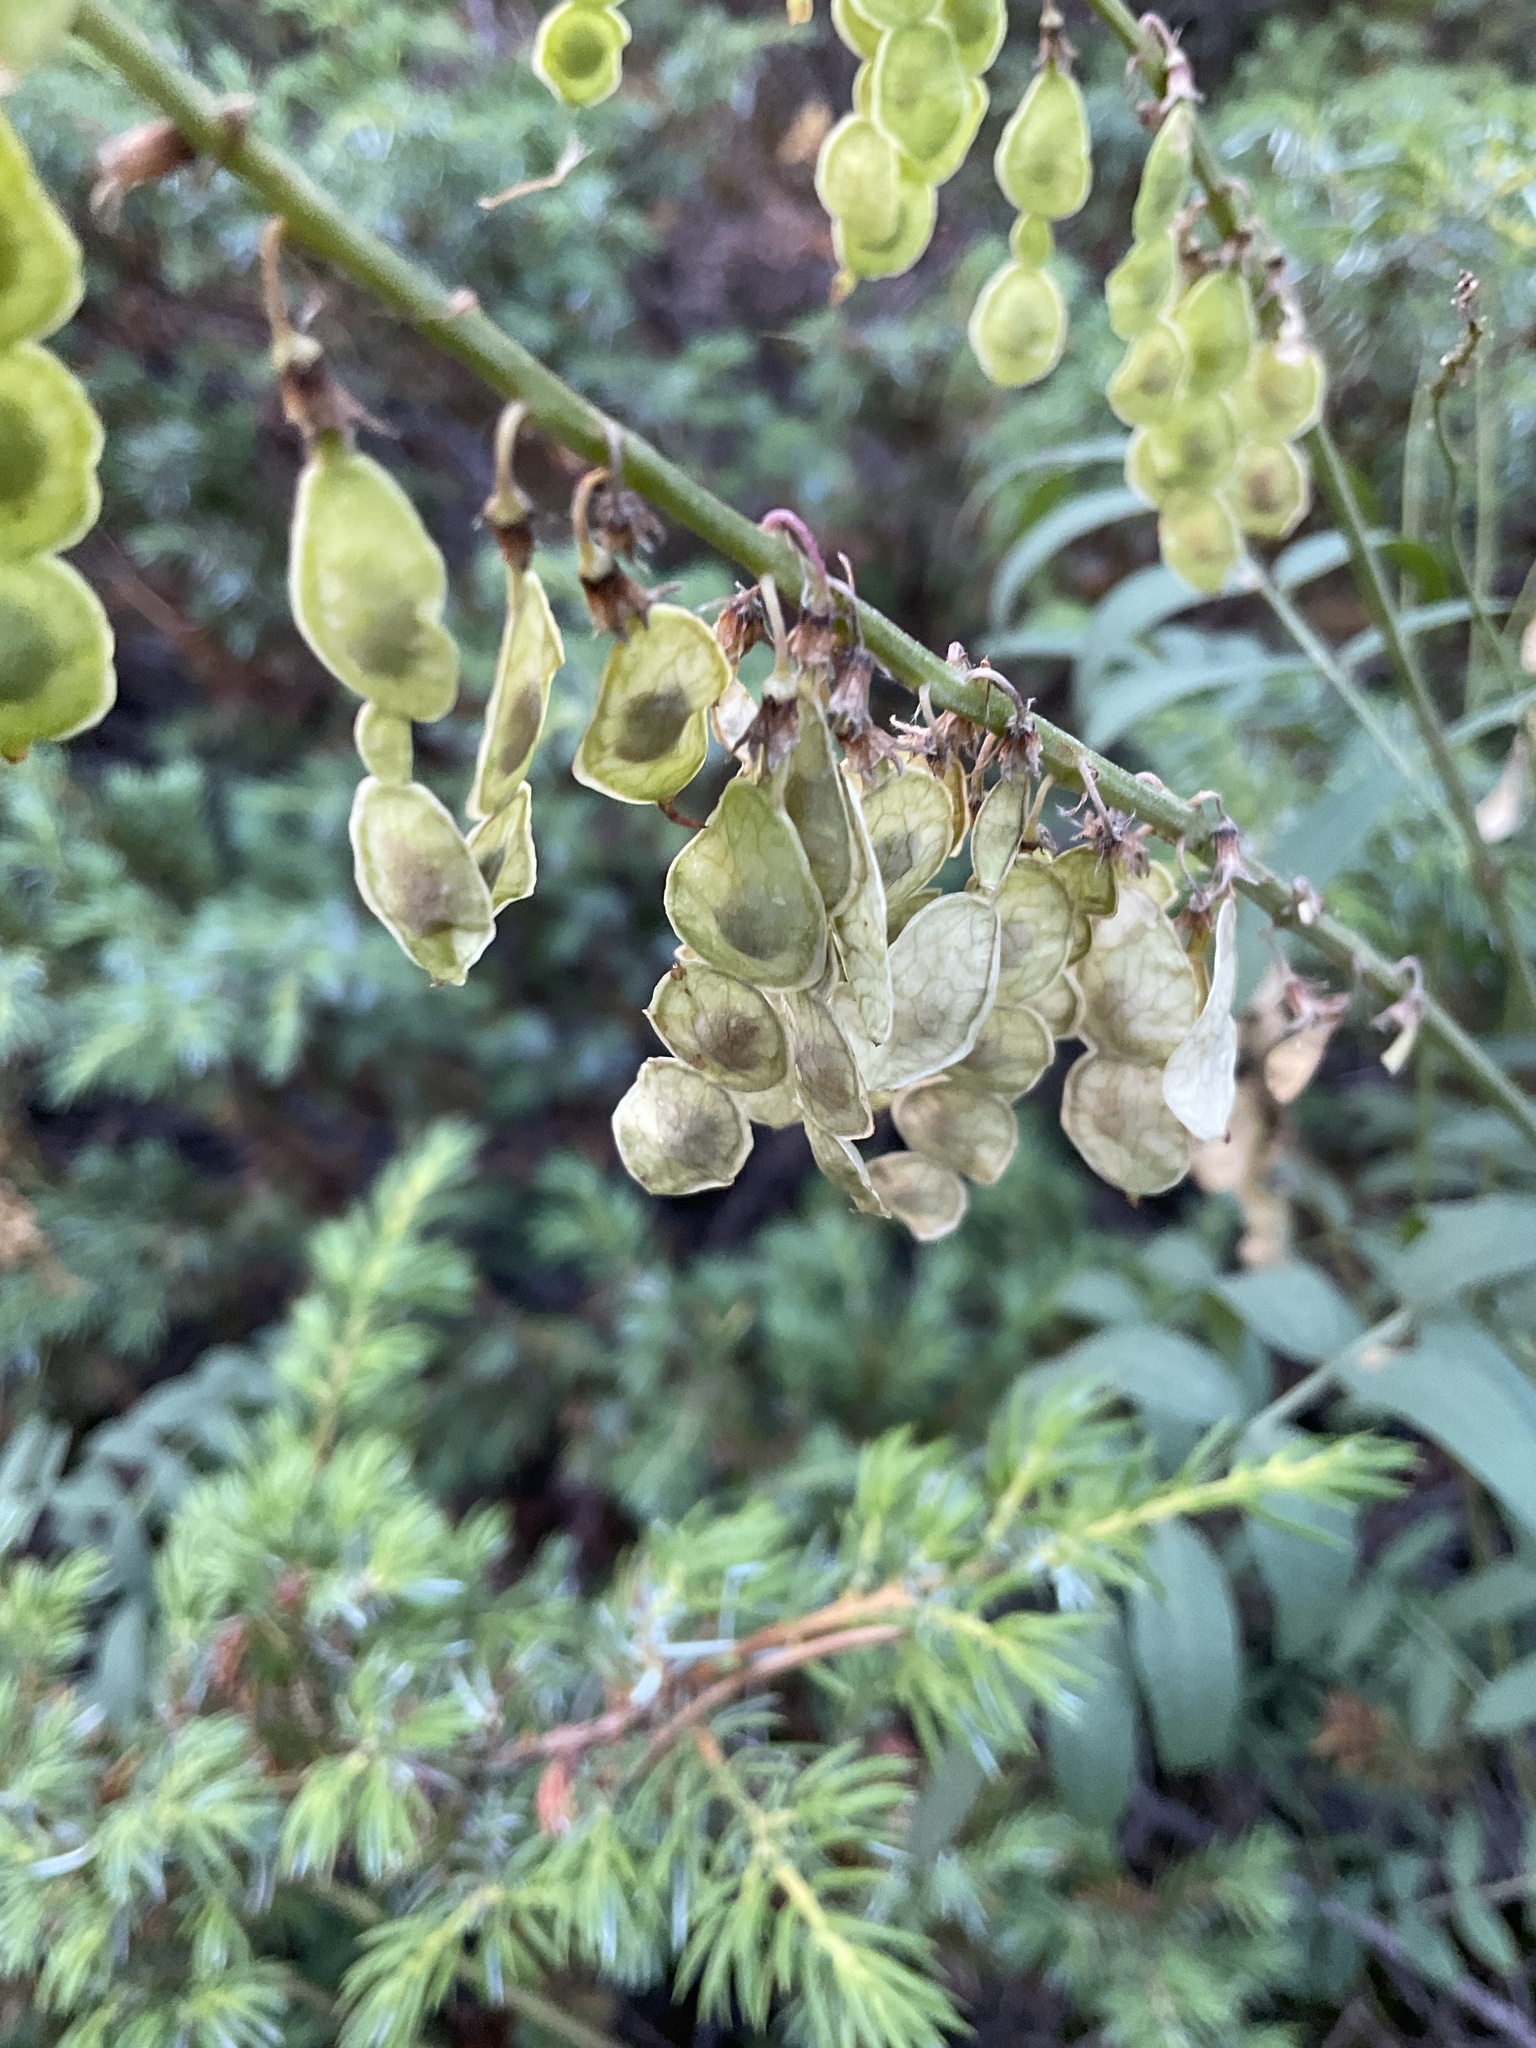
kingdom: Plantae
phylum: Tracheophyta
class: Magnoliopsida
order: Fabales
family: Fabaceae
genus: Hedysarum
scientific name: Hedysarum sulphurescens
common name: Sulphur hedysarum
